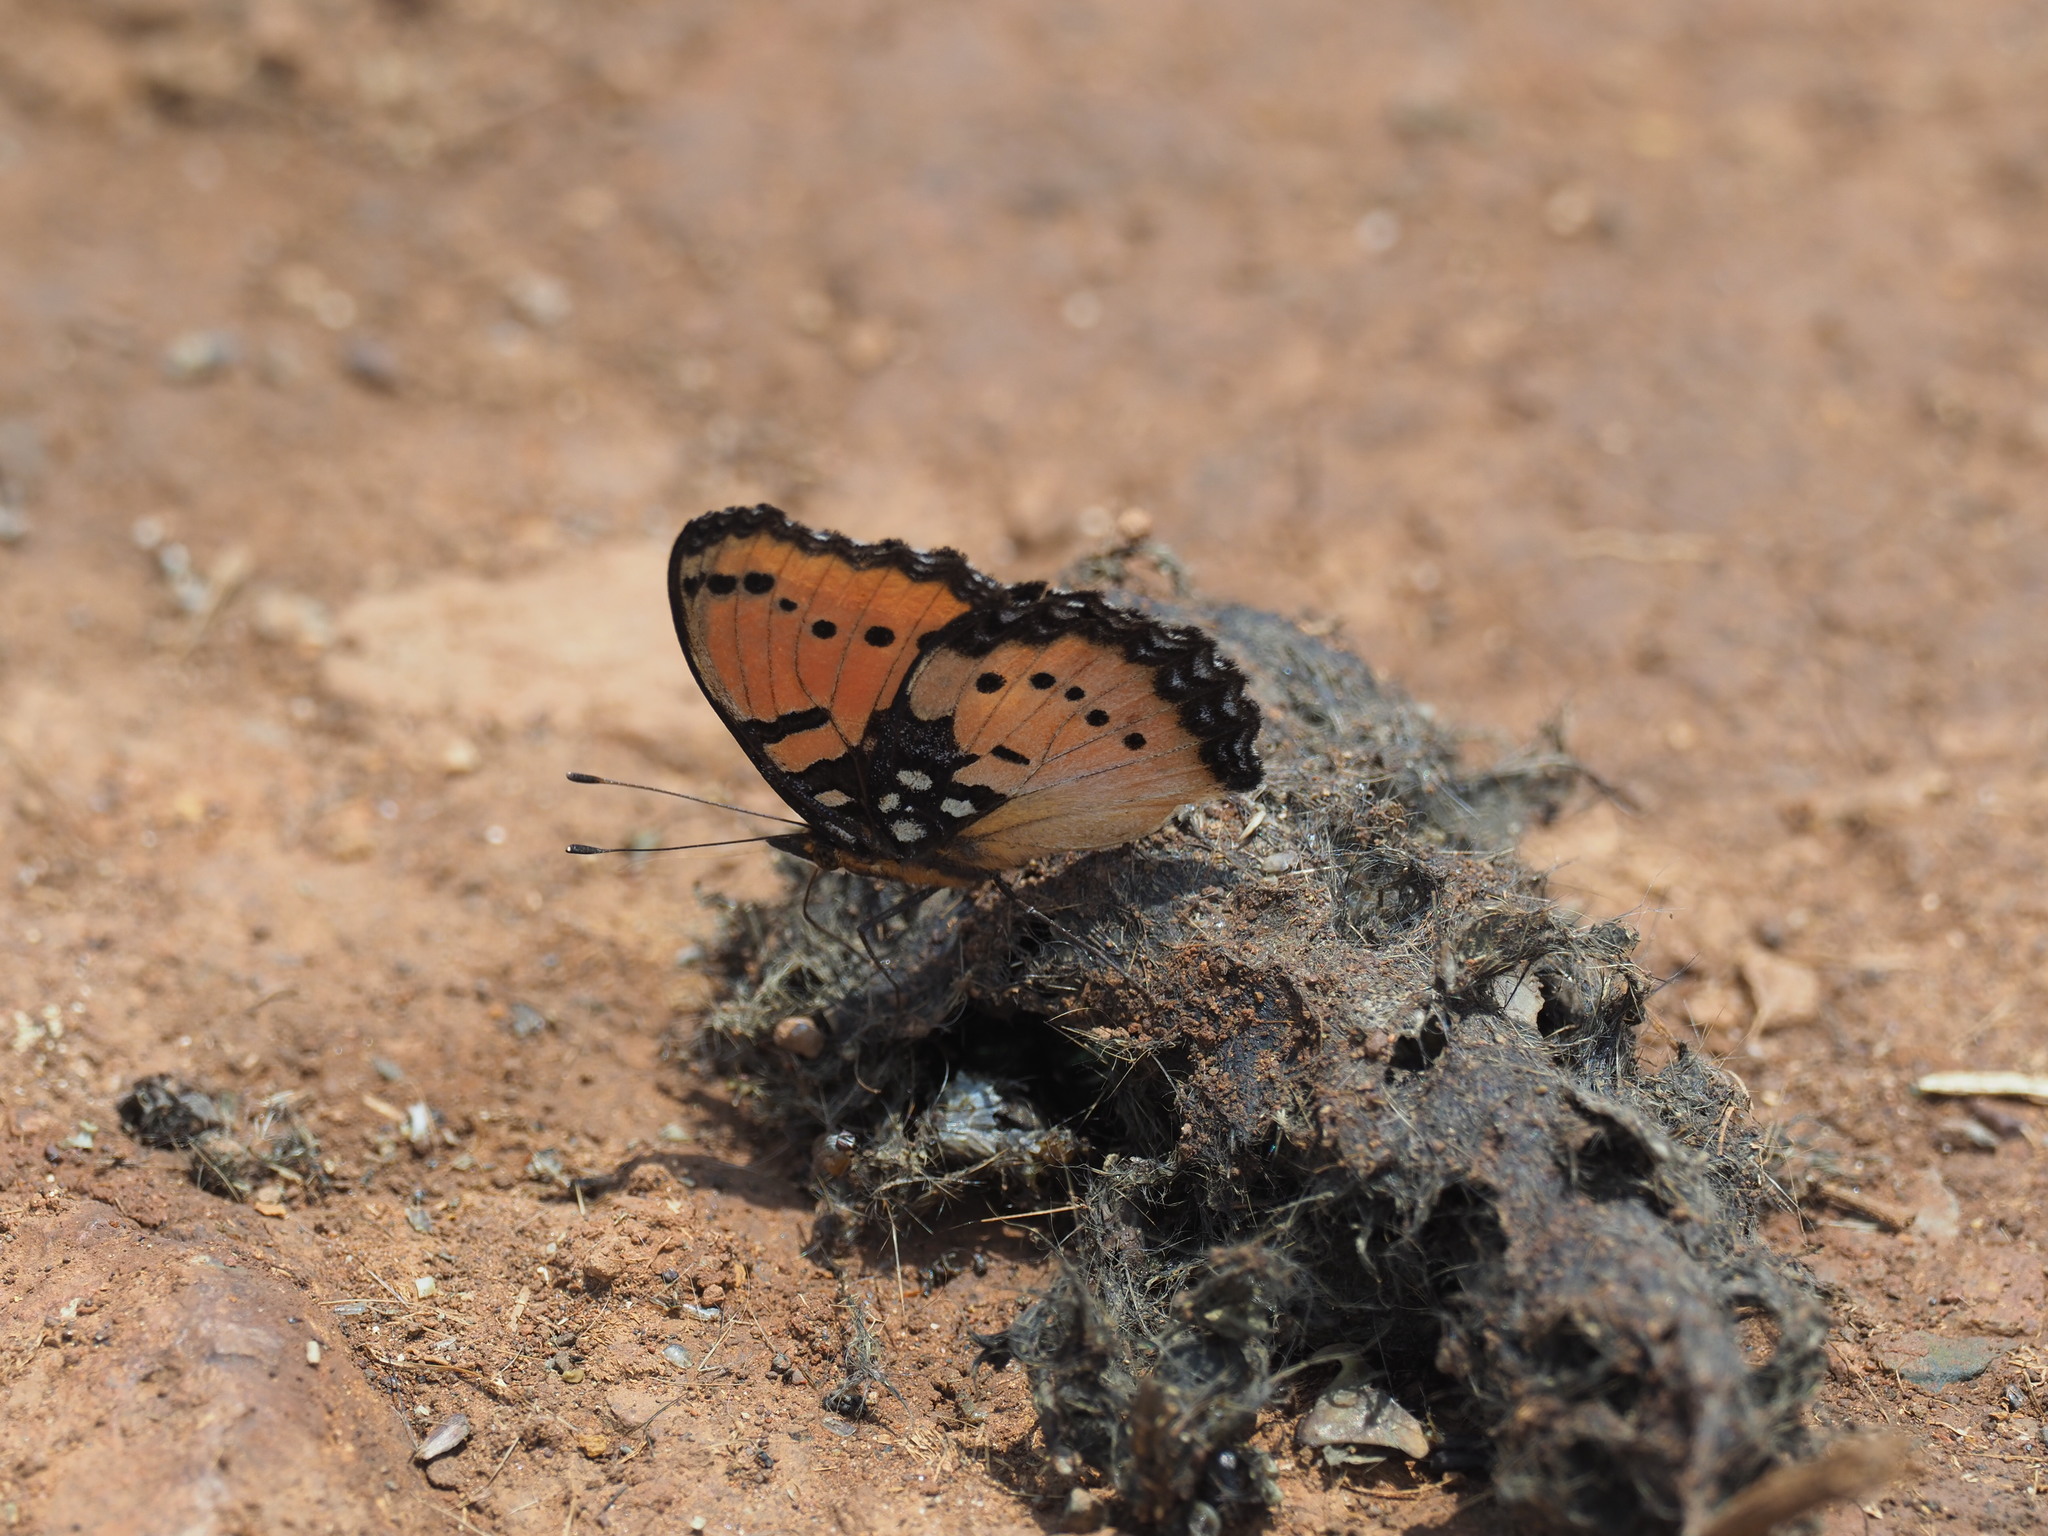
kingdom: Animalia
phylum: Arthropoda
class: Insecta
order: Lepidoptera
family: Nymphalidae
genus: Precis
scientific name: Precis octavia
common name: Gaudy commodore
